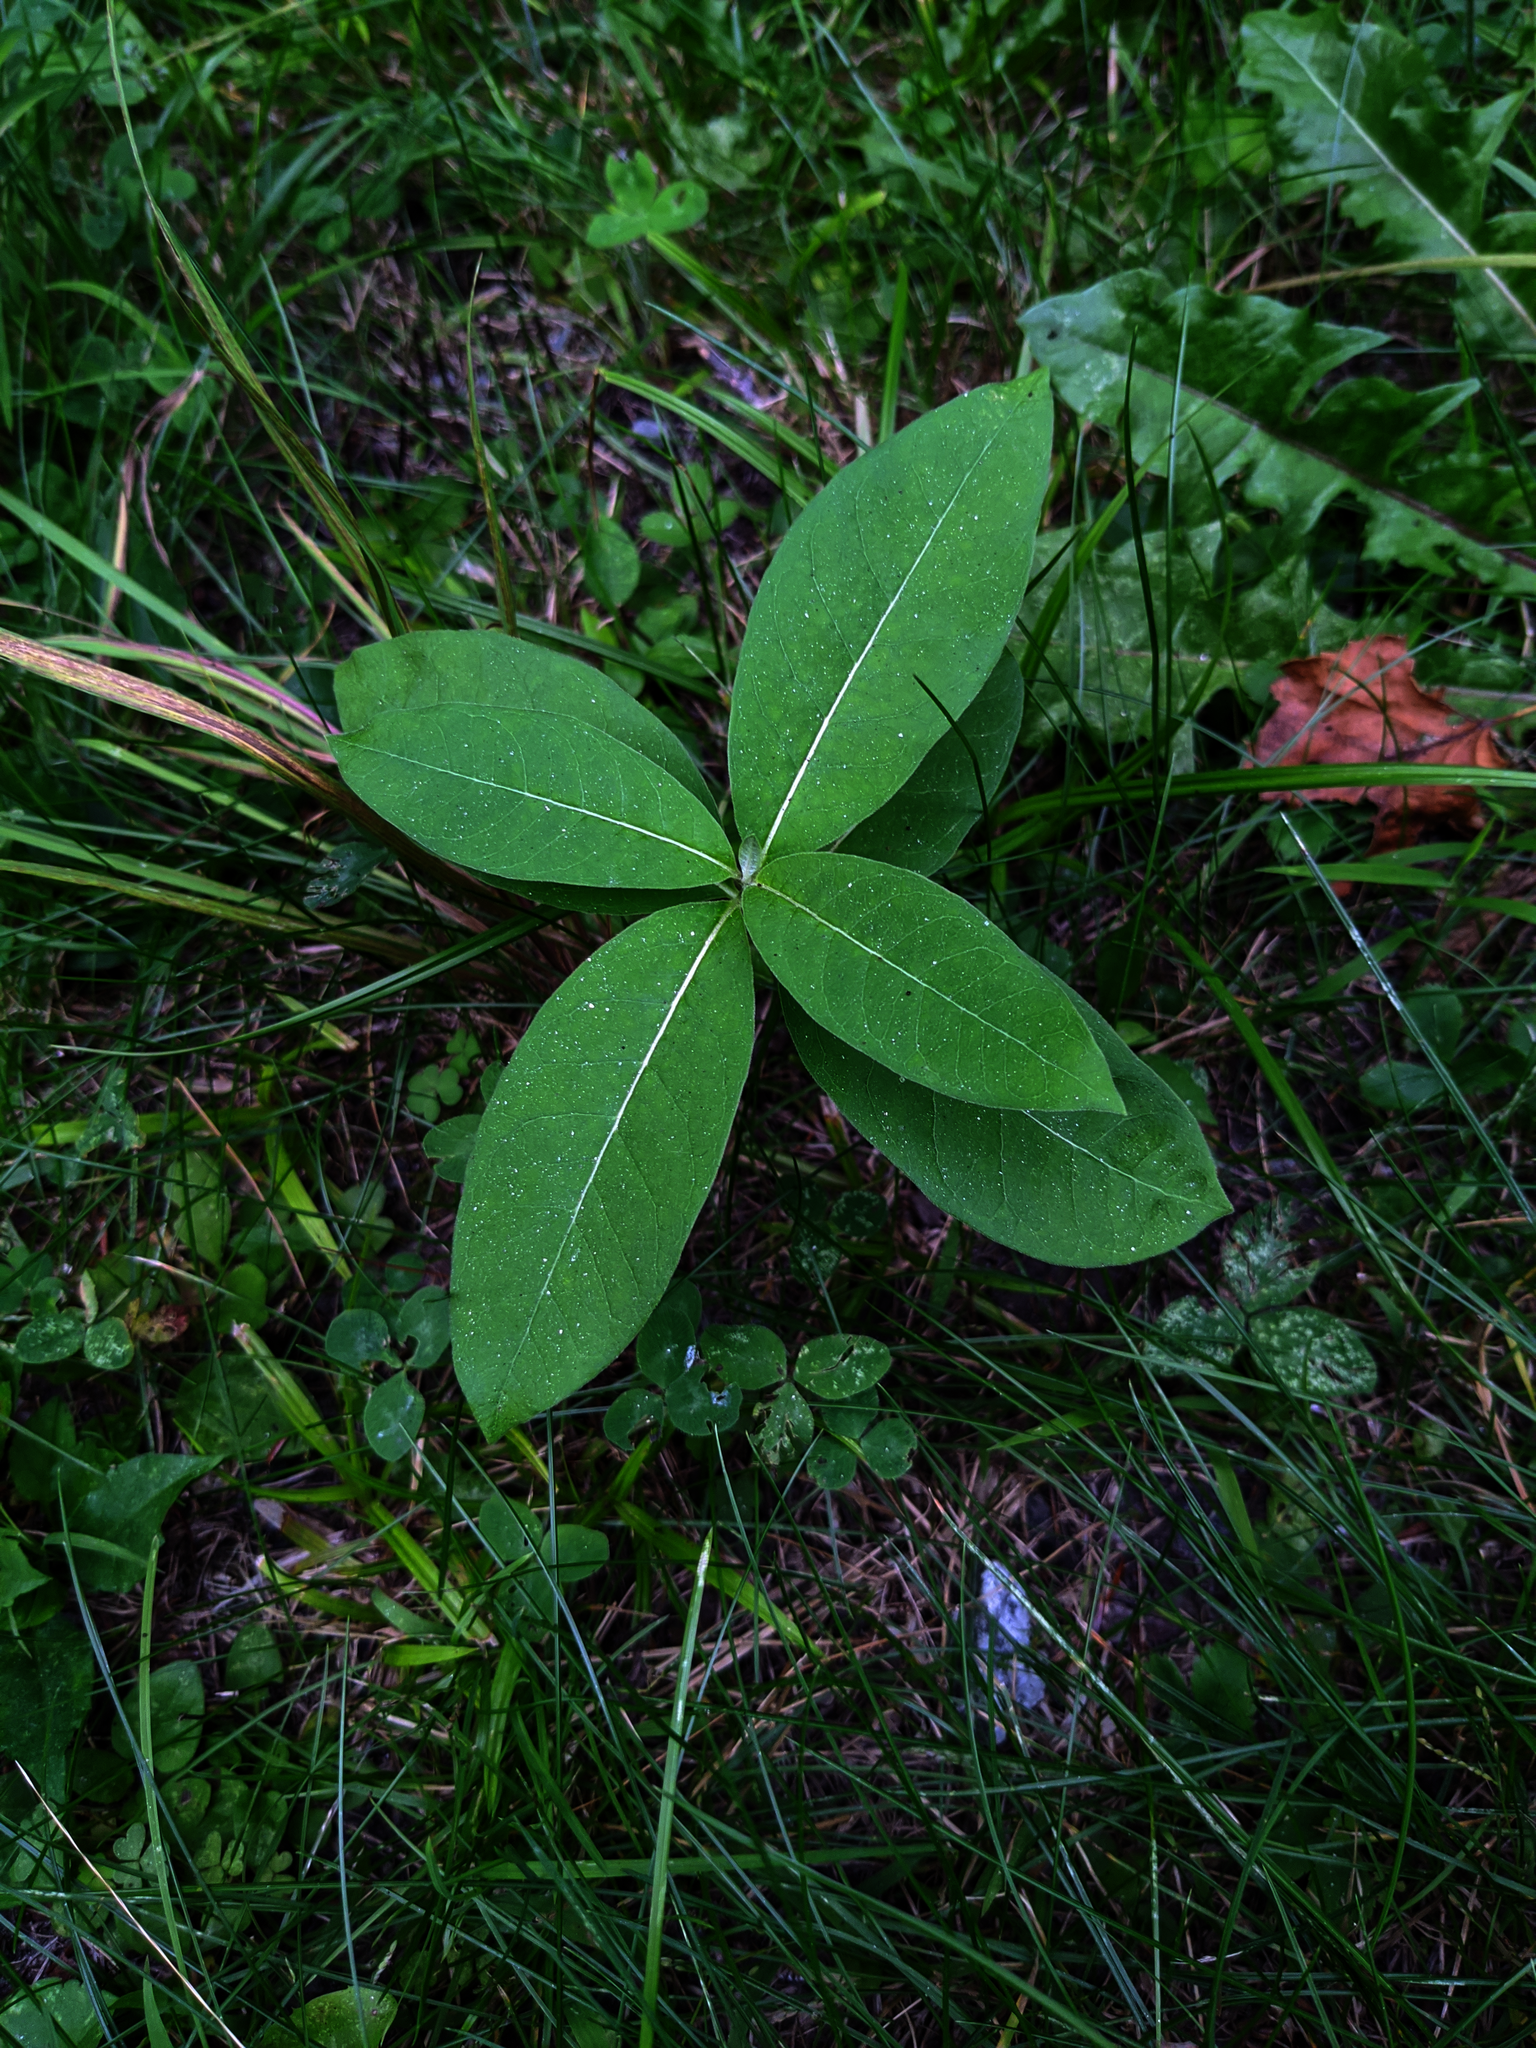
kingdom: Plantae
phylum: Tracheophyta
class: Magnoliopsida
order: Gentianales
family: Apocynaceae
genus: Asclepias
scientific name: Asclepias syriaca
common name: Common milkweed
